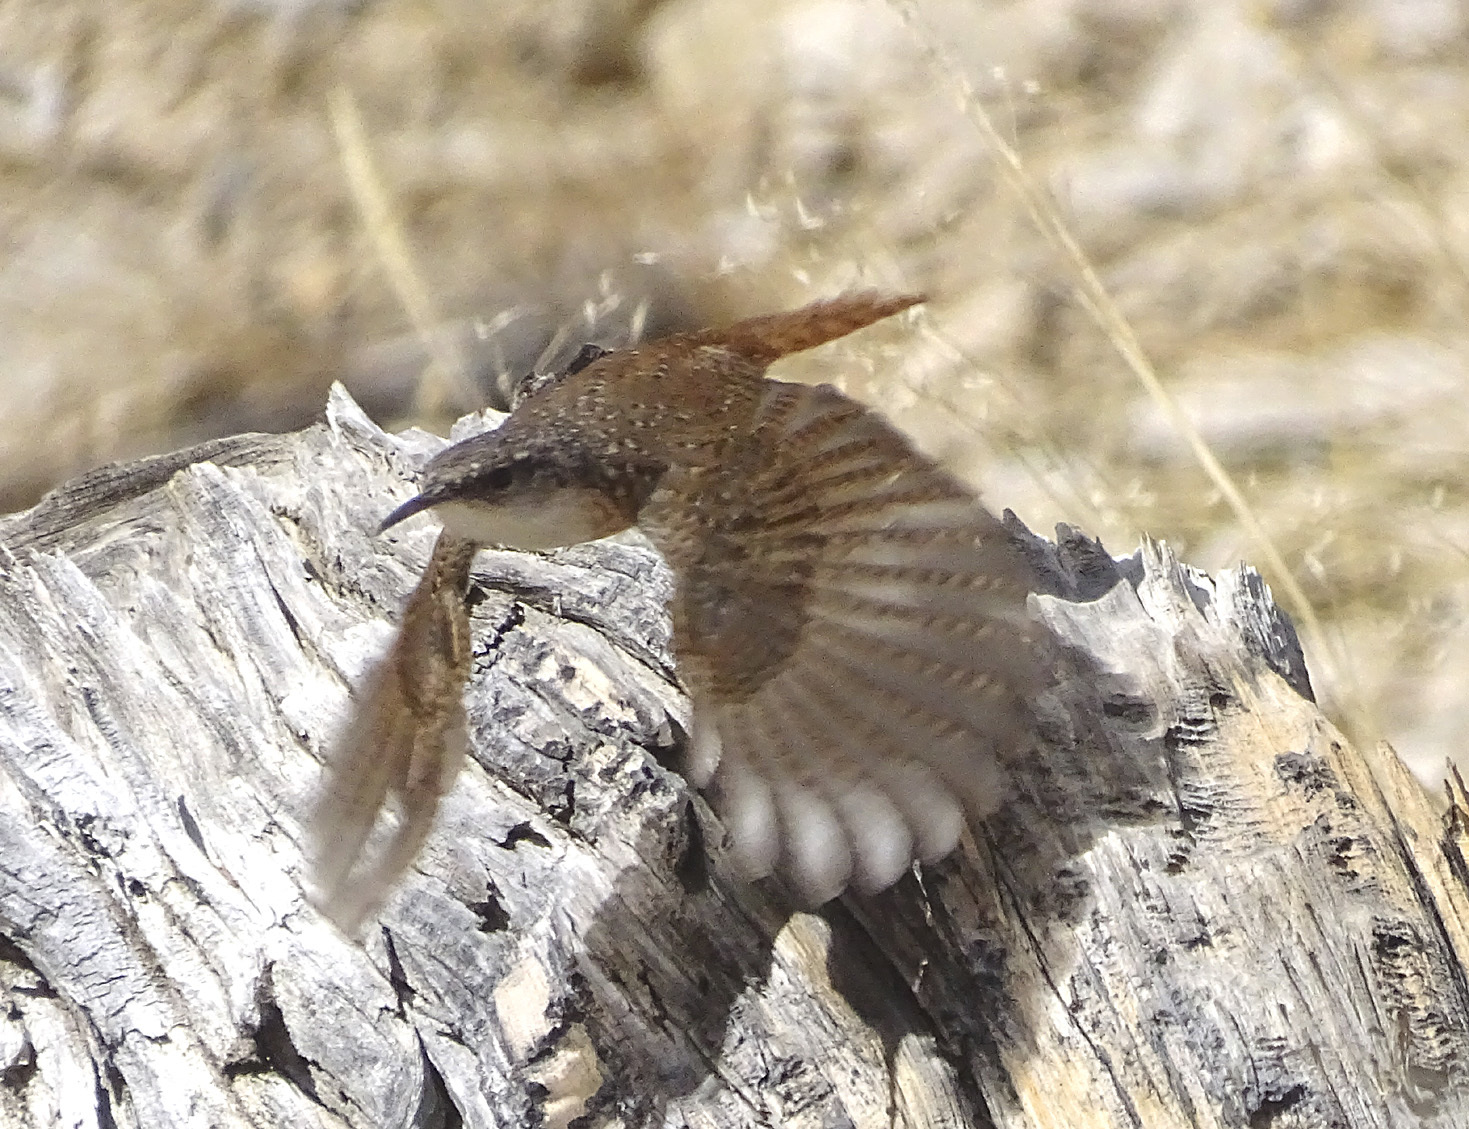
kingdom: Animalia
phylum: Chordata
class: Aves
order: Passeriformes
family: Troglodytidae
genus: Catherpes
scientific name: Catherpes mexicanus
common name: Canyon wren
